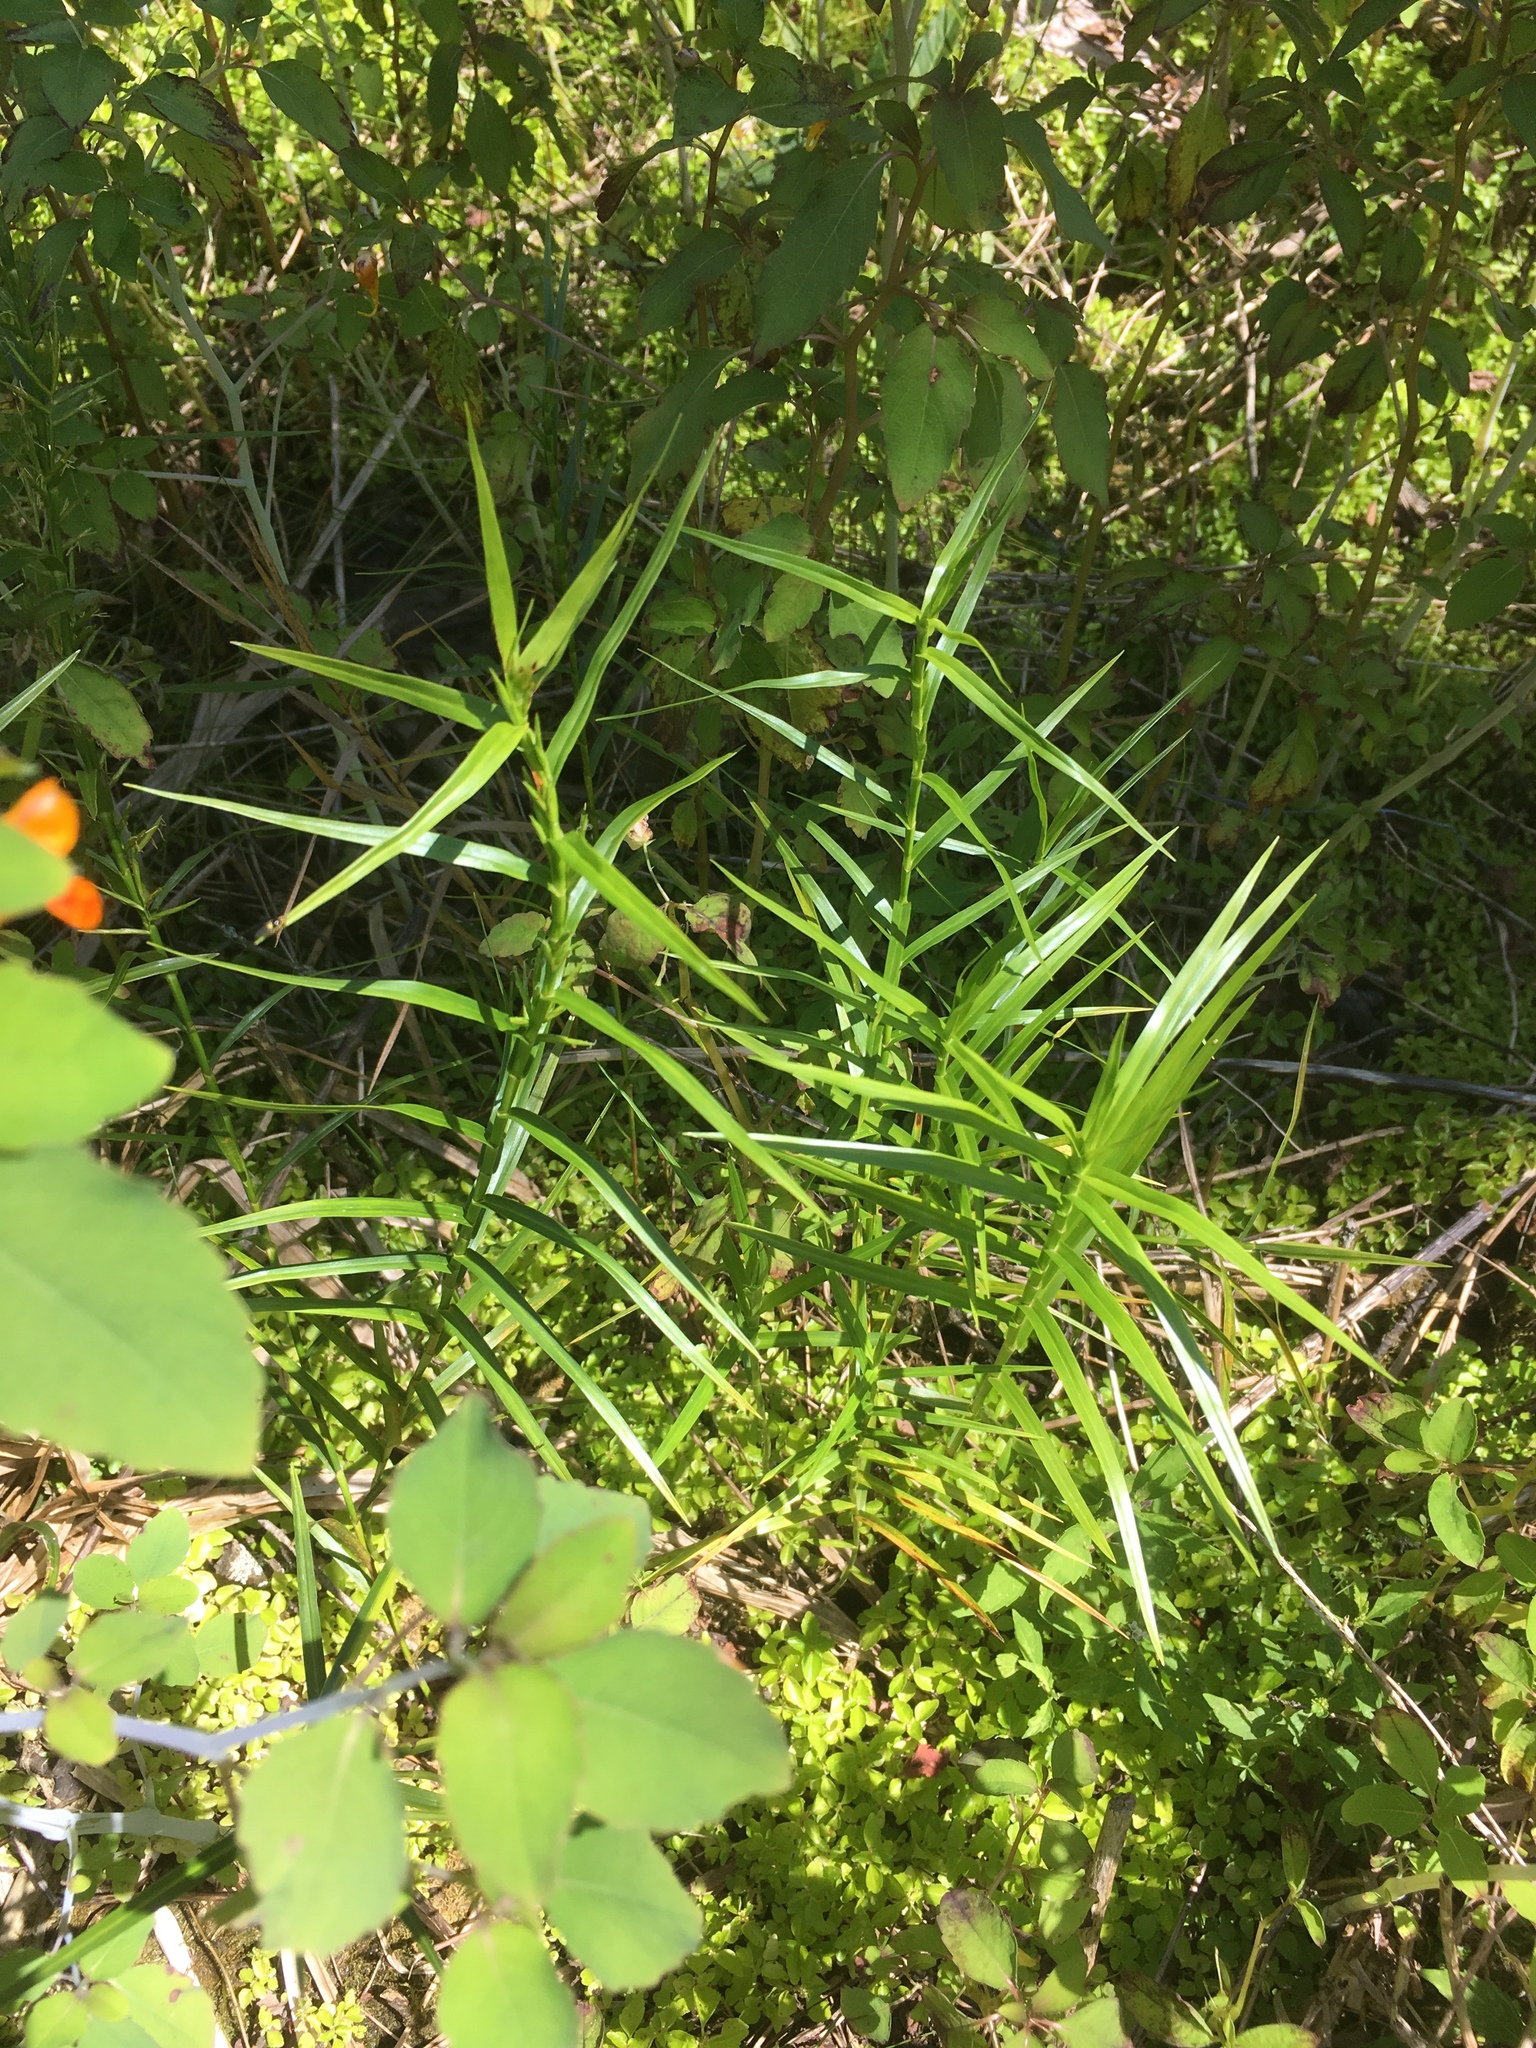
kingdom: Plantae
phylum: Tracheophyta
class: Liliopsida
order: Poales
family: Cyperaceae
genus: Dulichium
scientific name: Dulichium arundinaceum
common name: Three-way sedge
